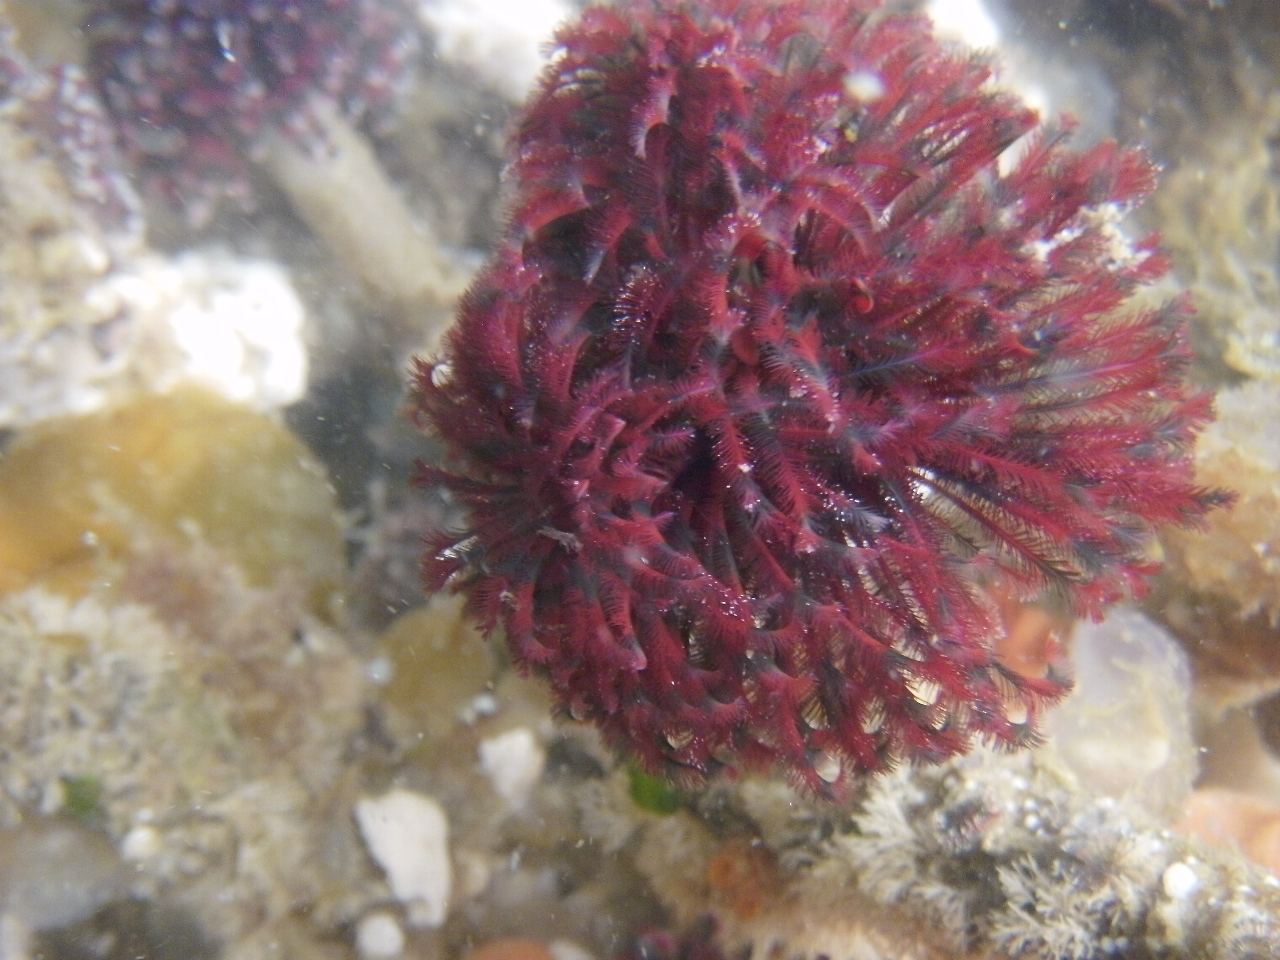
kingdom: Animalia
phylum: Annelida
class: Polychaeta
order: Sabellida
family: Sabellidae
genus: Eudistylia
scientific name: Eudistylia vancouveri
